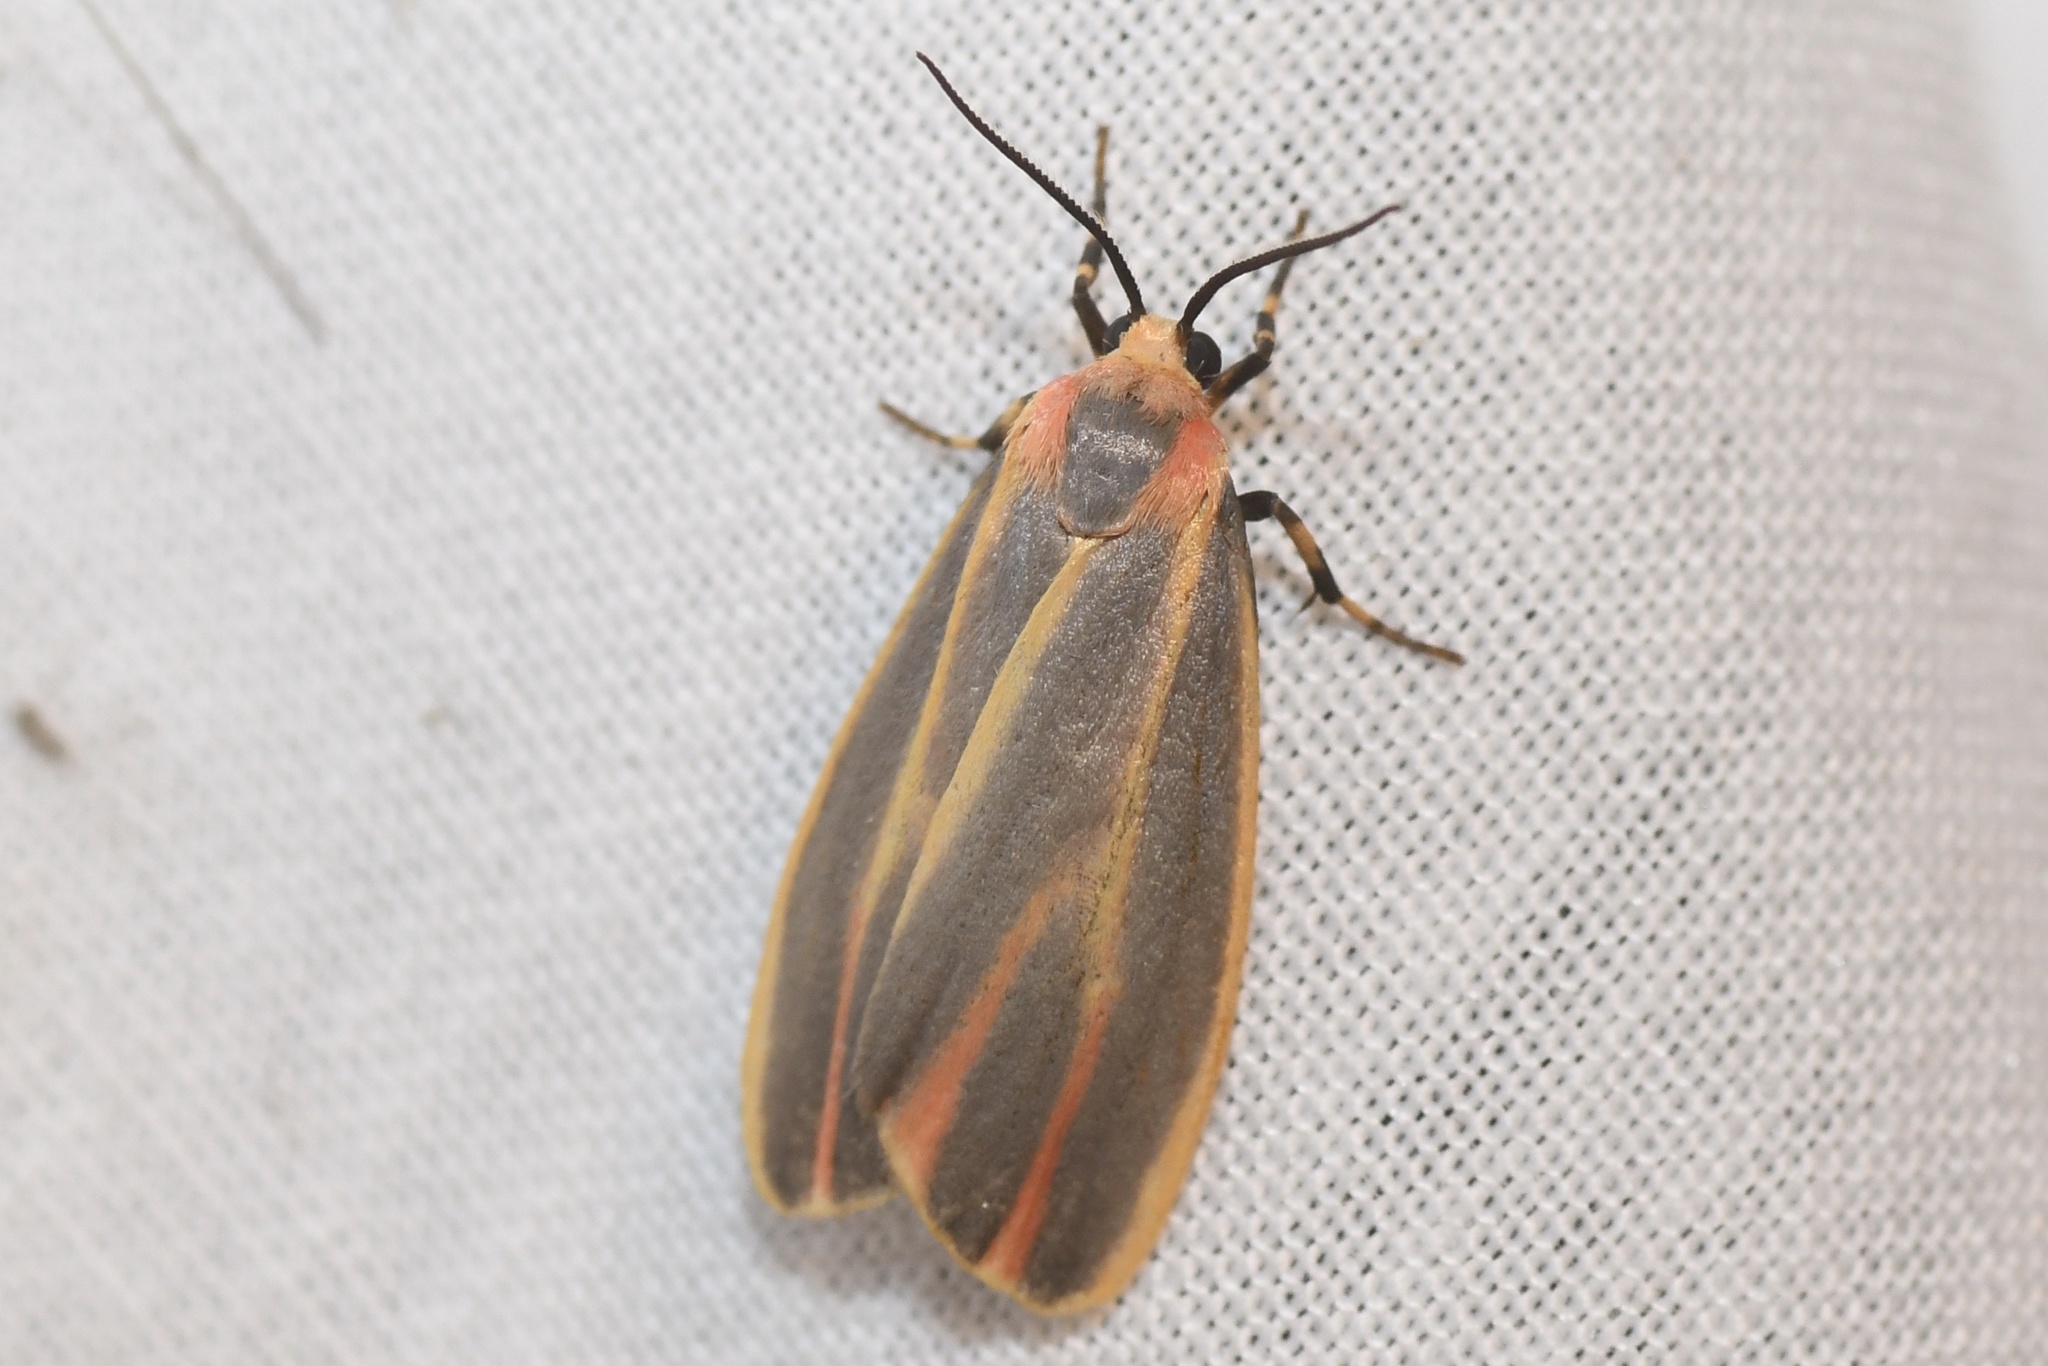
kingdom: Animalia
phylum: Arthropoda
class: Insecta
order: Lepidoptera
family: Erebidae
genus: Hypoprepia
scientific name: Hypoprepia fucosa
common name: Painted lichen moth
